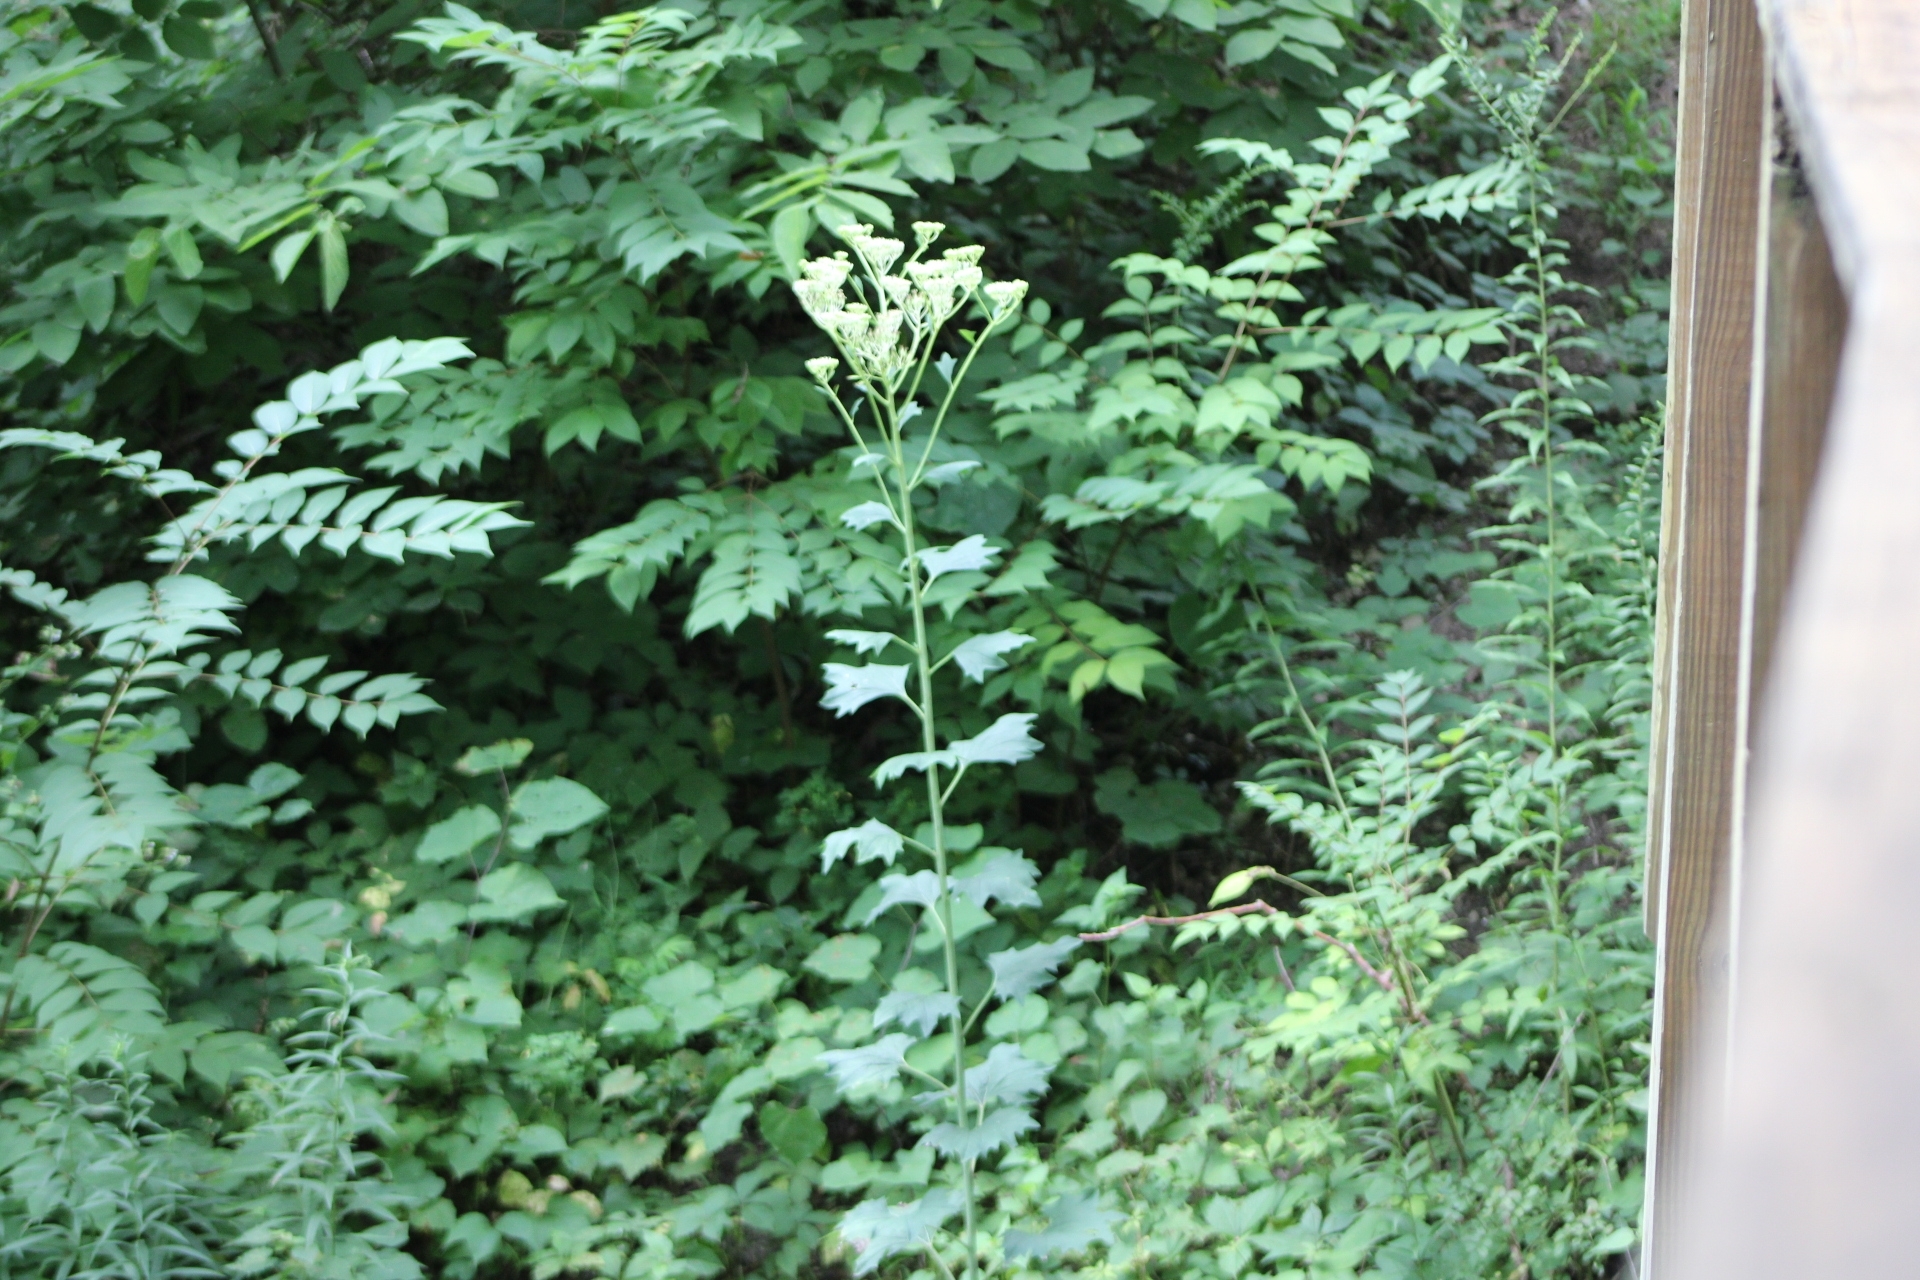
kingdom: Plantae
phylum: Tracheophyta
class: Magnoliopsida
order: Asterales
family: Asteraceae
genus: Arnoglossum
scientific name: Arnoglossum atriplicifolium
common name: Pale indian-plantain
